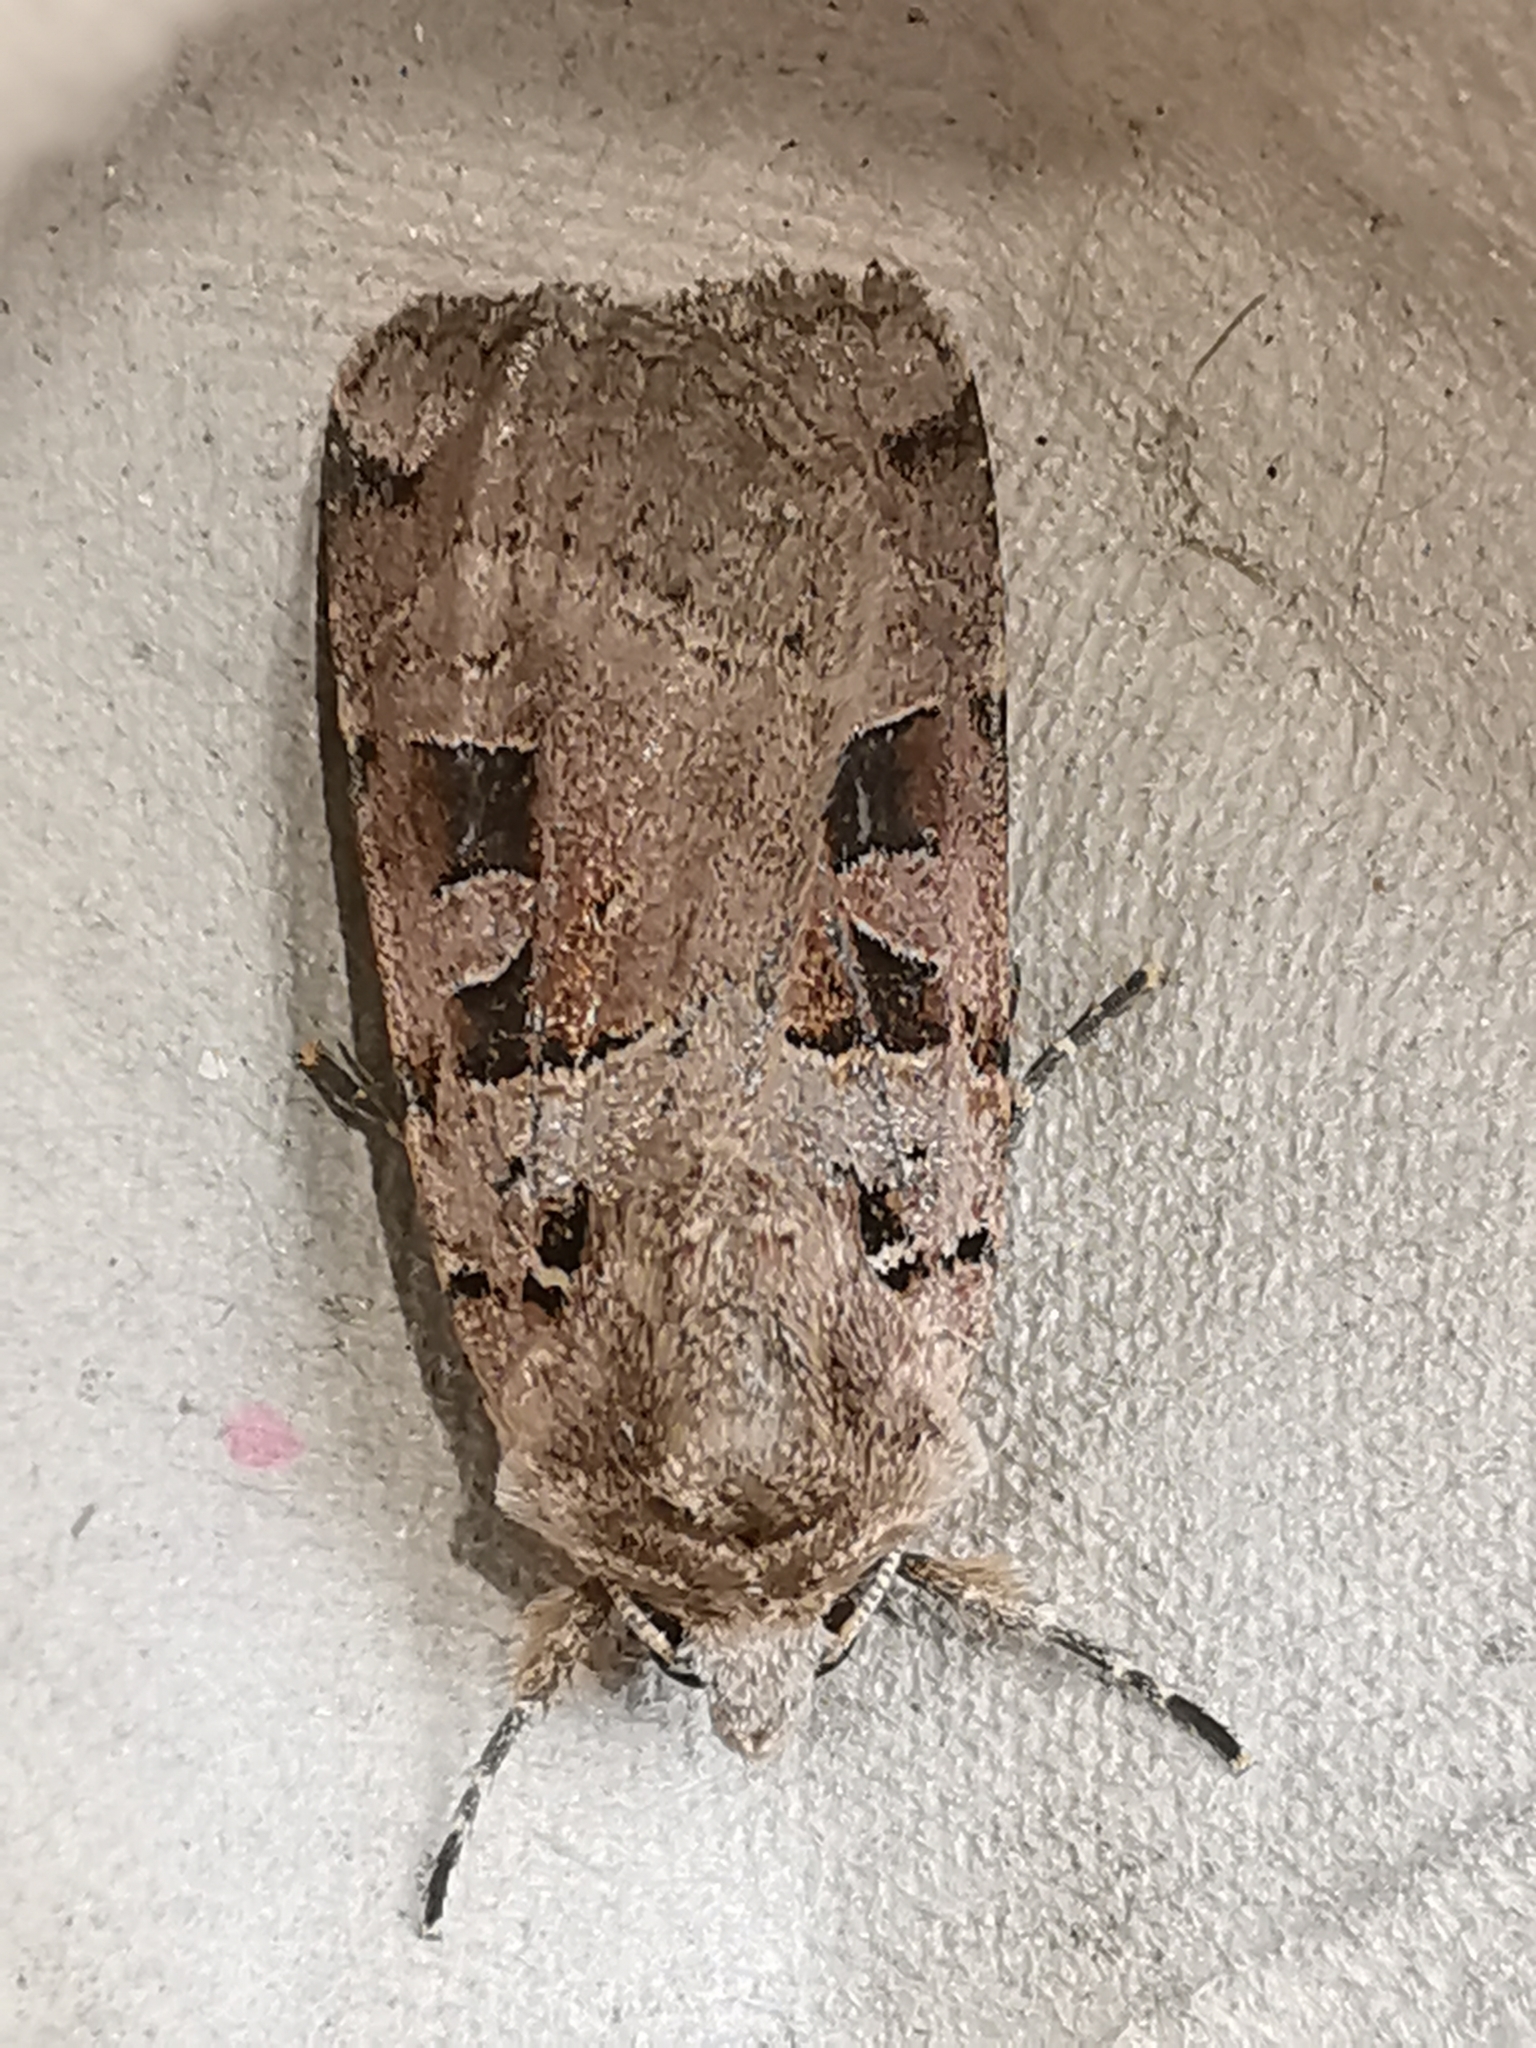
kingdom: Animalia
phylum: Arthropoda
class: Insecta
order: Lepidoptera
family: Noctuidae
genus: Xestia
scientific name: Xestia triangulum
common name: Double square-spot
